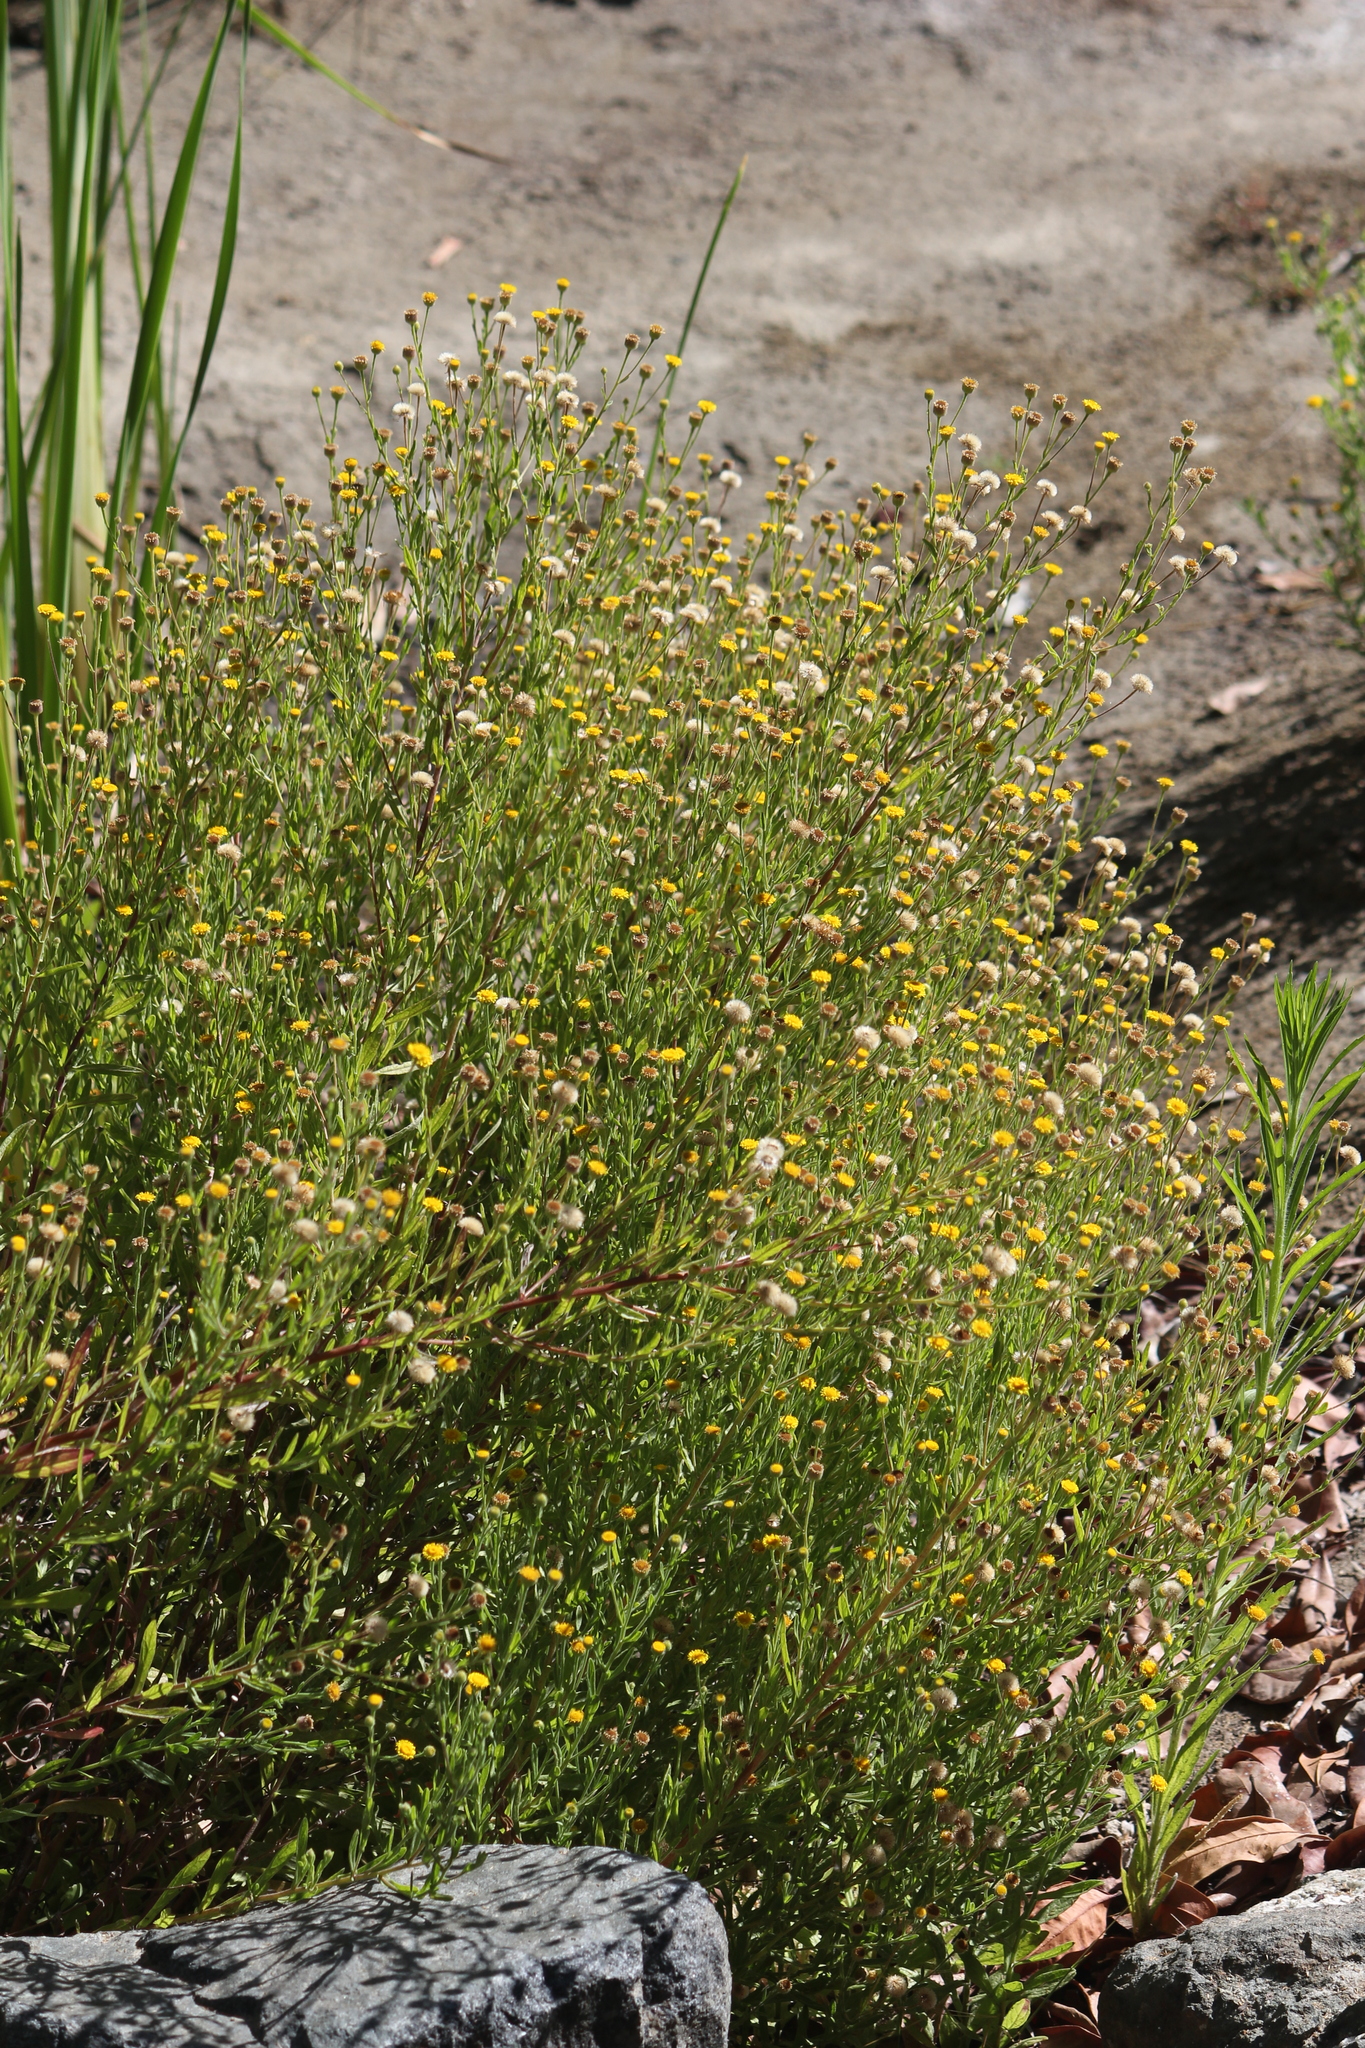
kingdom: Plantae
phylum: Tracheophyta
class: Magnoliopsida
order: Asterales
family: Asteraceae
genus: Pulicaria
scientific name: Pulicaria paludosa
